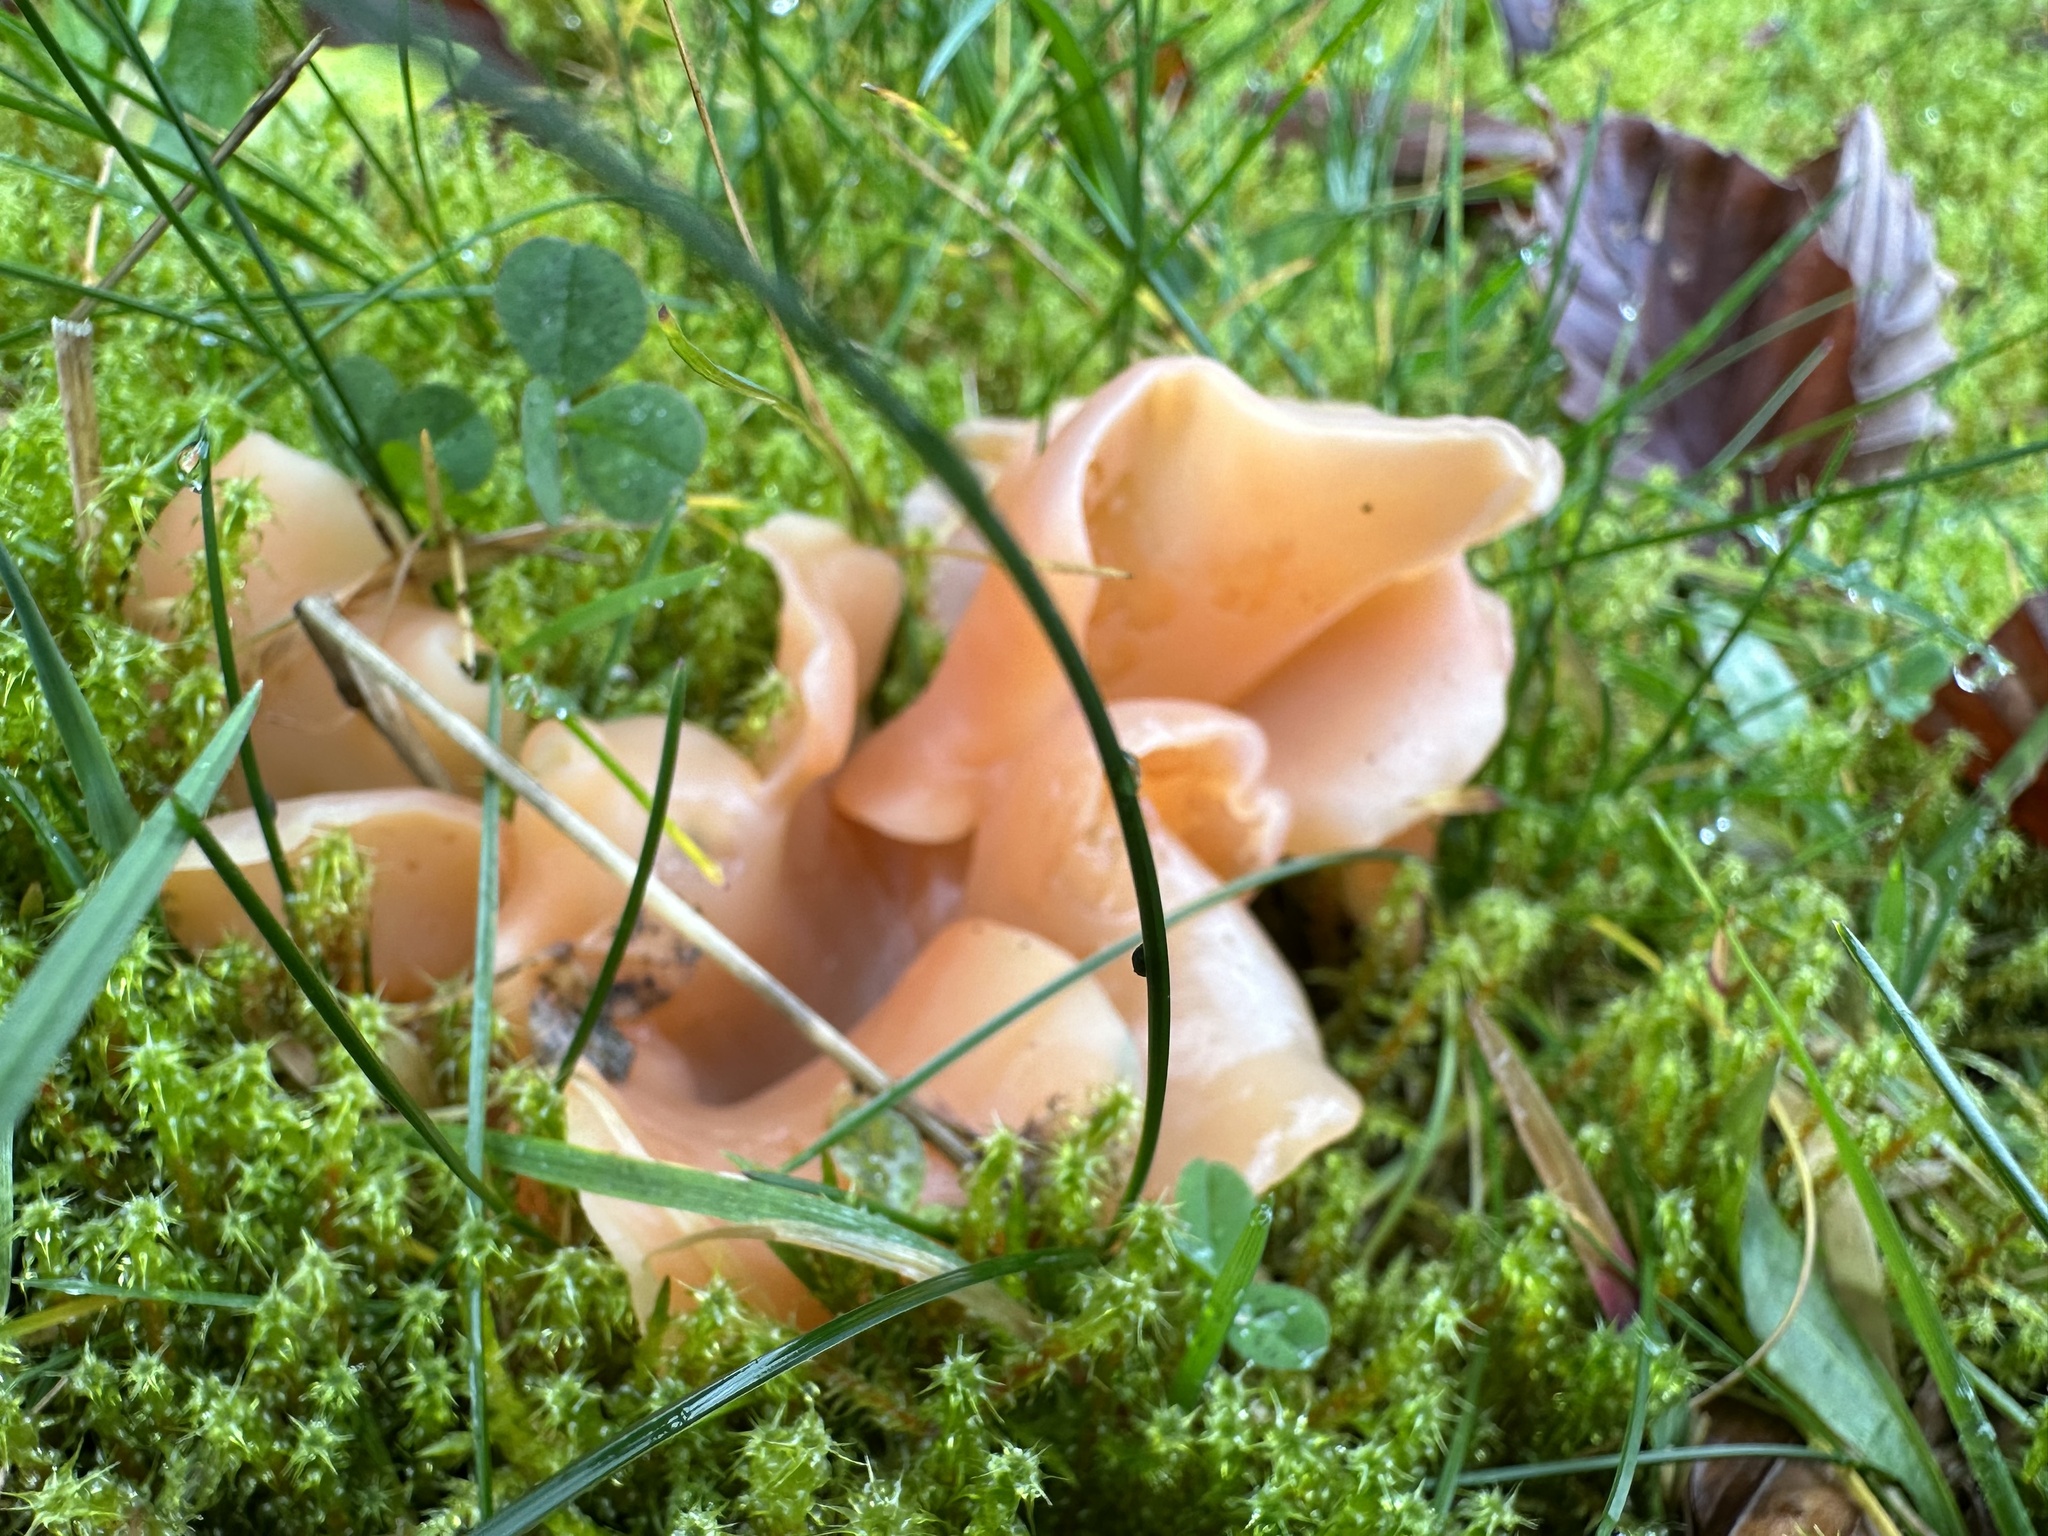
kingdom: Fungi
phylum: Basidiomycota
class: Agaricomycetes
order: Auriculariales
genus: Guepinia
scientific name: Guepinia helvelloides
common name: Salmon salad
